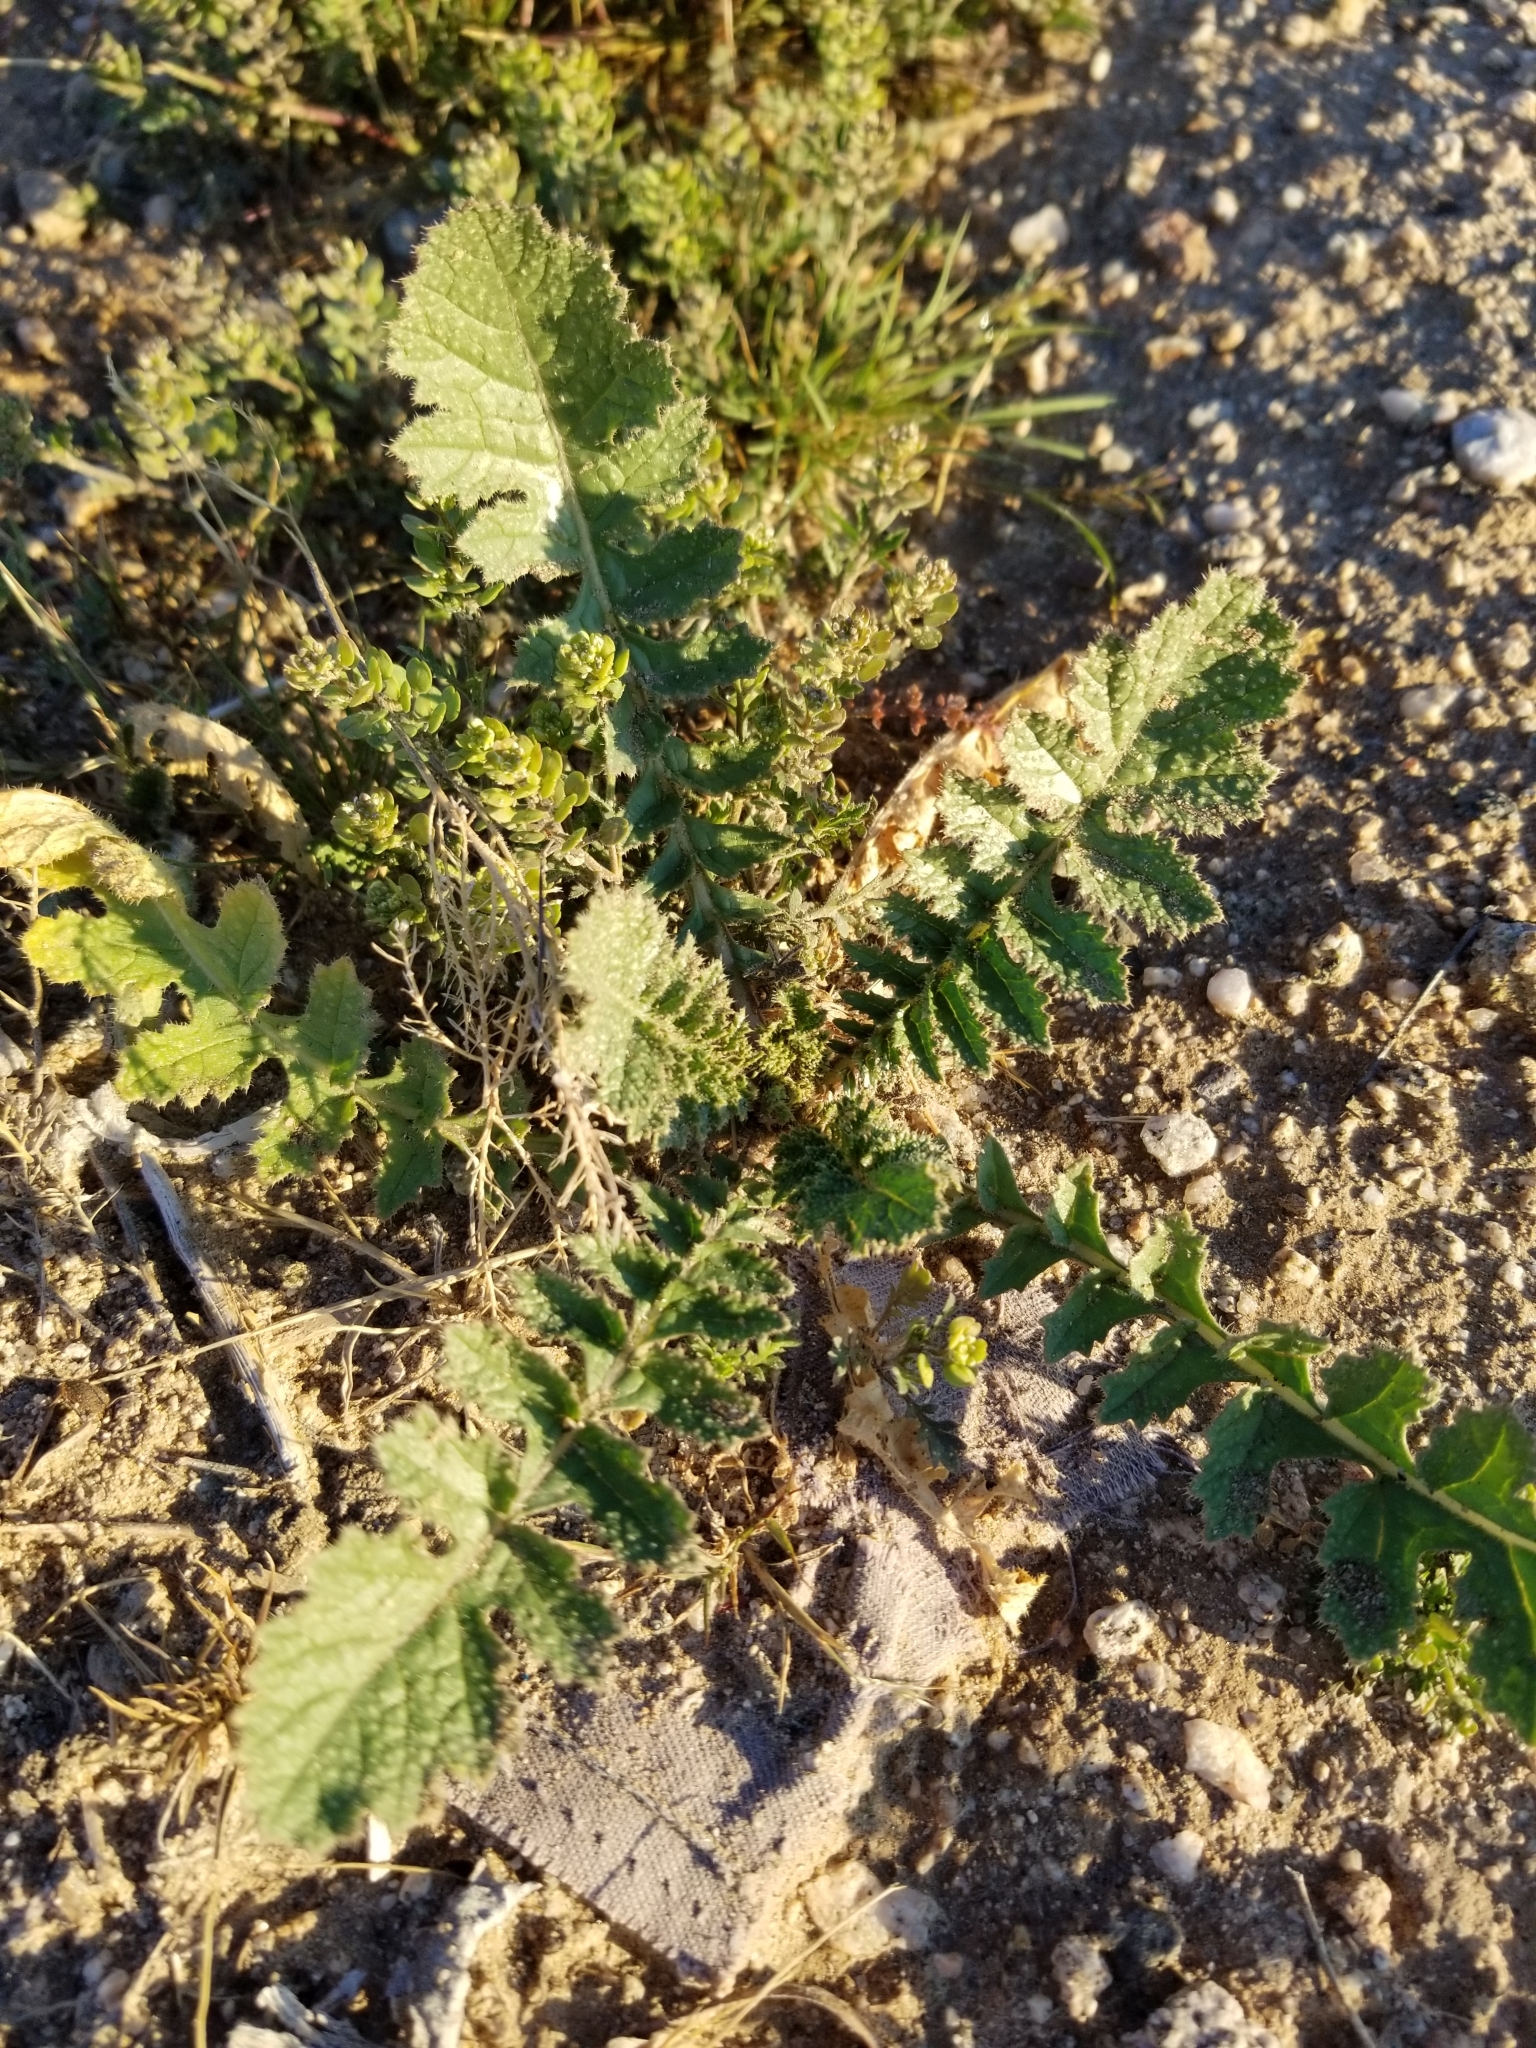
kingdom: Plantae
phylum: Tracheophyta
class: Magnoliopsida
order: Brassicales
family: Brassicaceae
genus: Brassica
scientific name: Brassica tournefortii
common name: Pale cabbage
